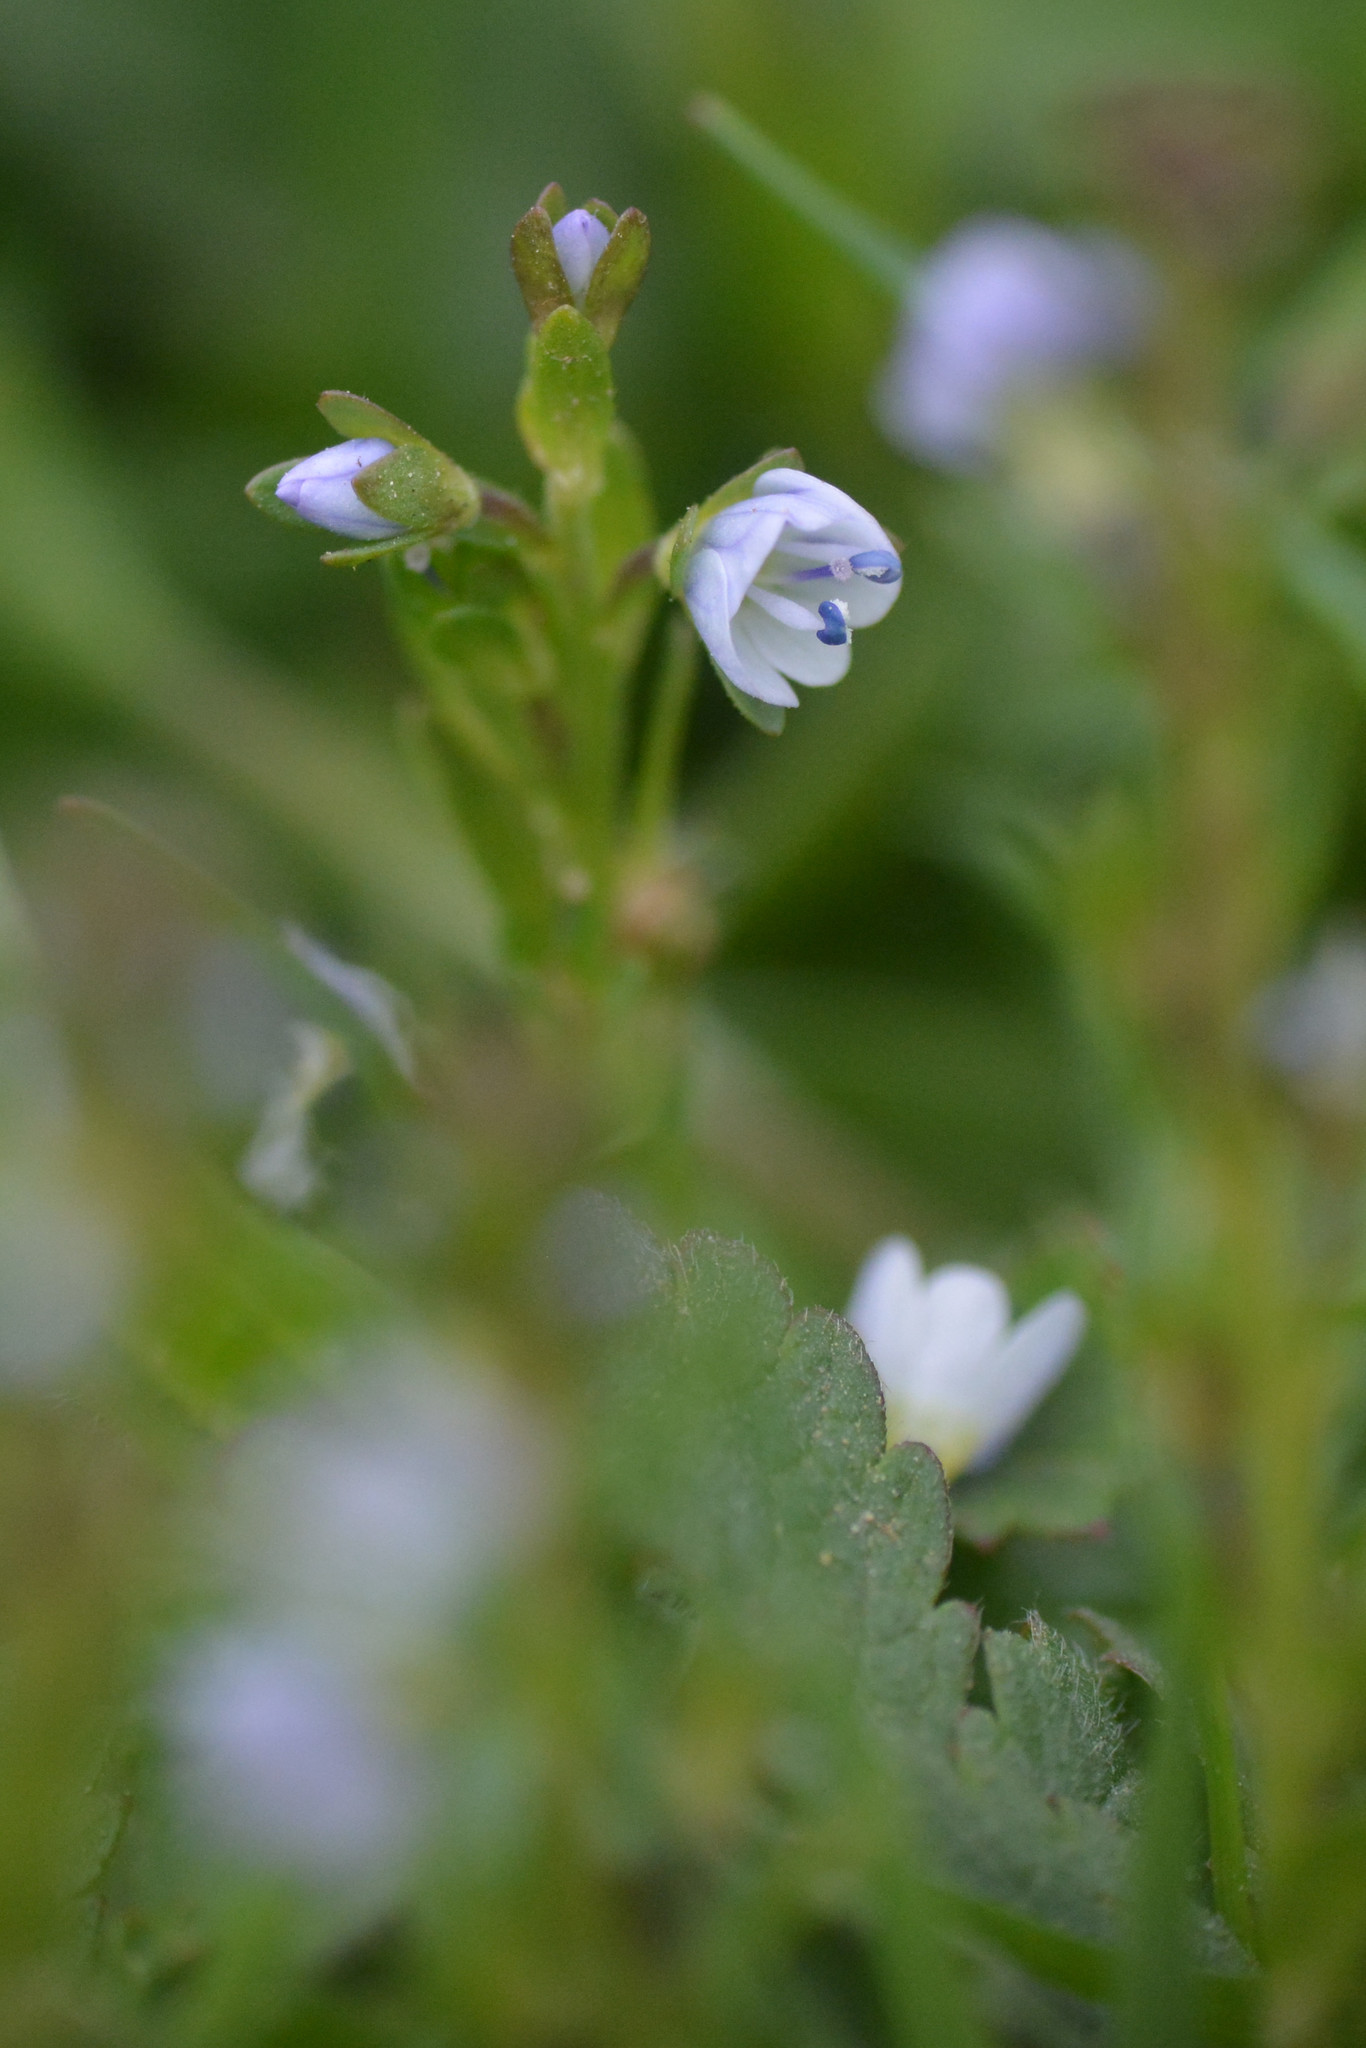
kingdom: Plantae
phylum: Tracheophyta
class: Magnoliopsida
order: Lamiales
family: Plantaginaceae
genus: Veronica
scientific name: Veronica serpyllifolia
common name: Thyme-leaved speedwell
